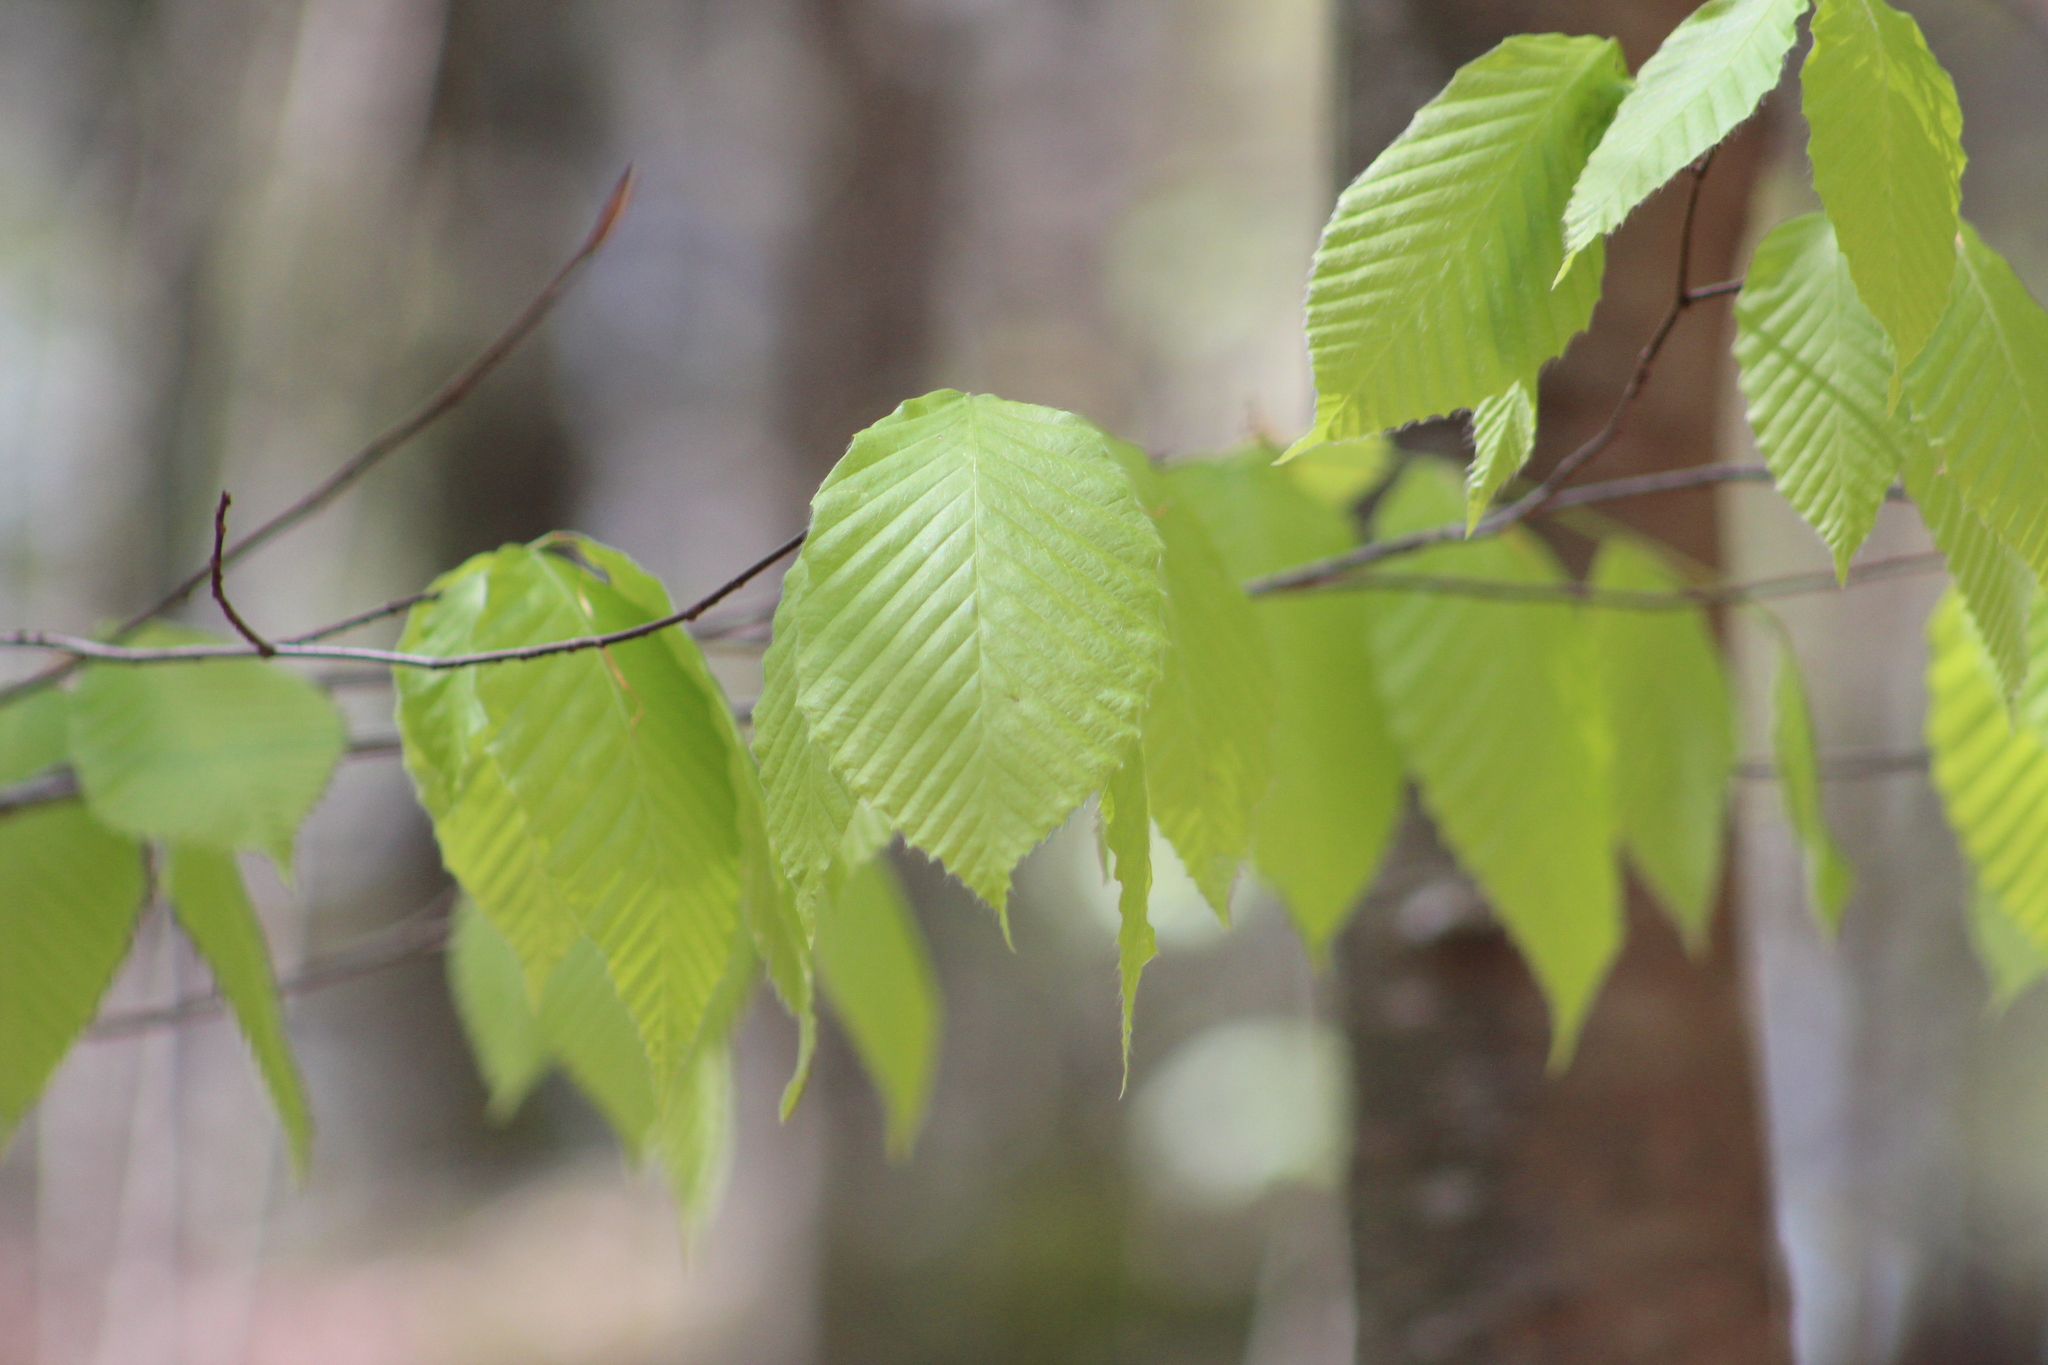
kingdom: Plantae
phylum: Tracheophyta
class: Magnoliopsida
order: Fagales
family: Fagaceae
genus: Fagus
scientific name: Fagus grandifolia
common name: American beech
